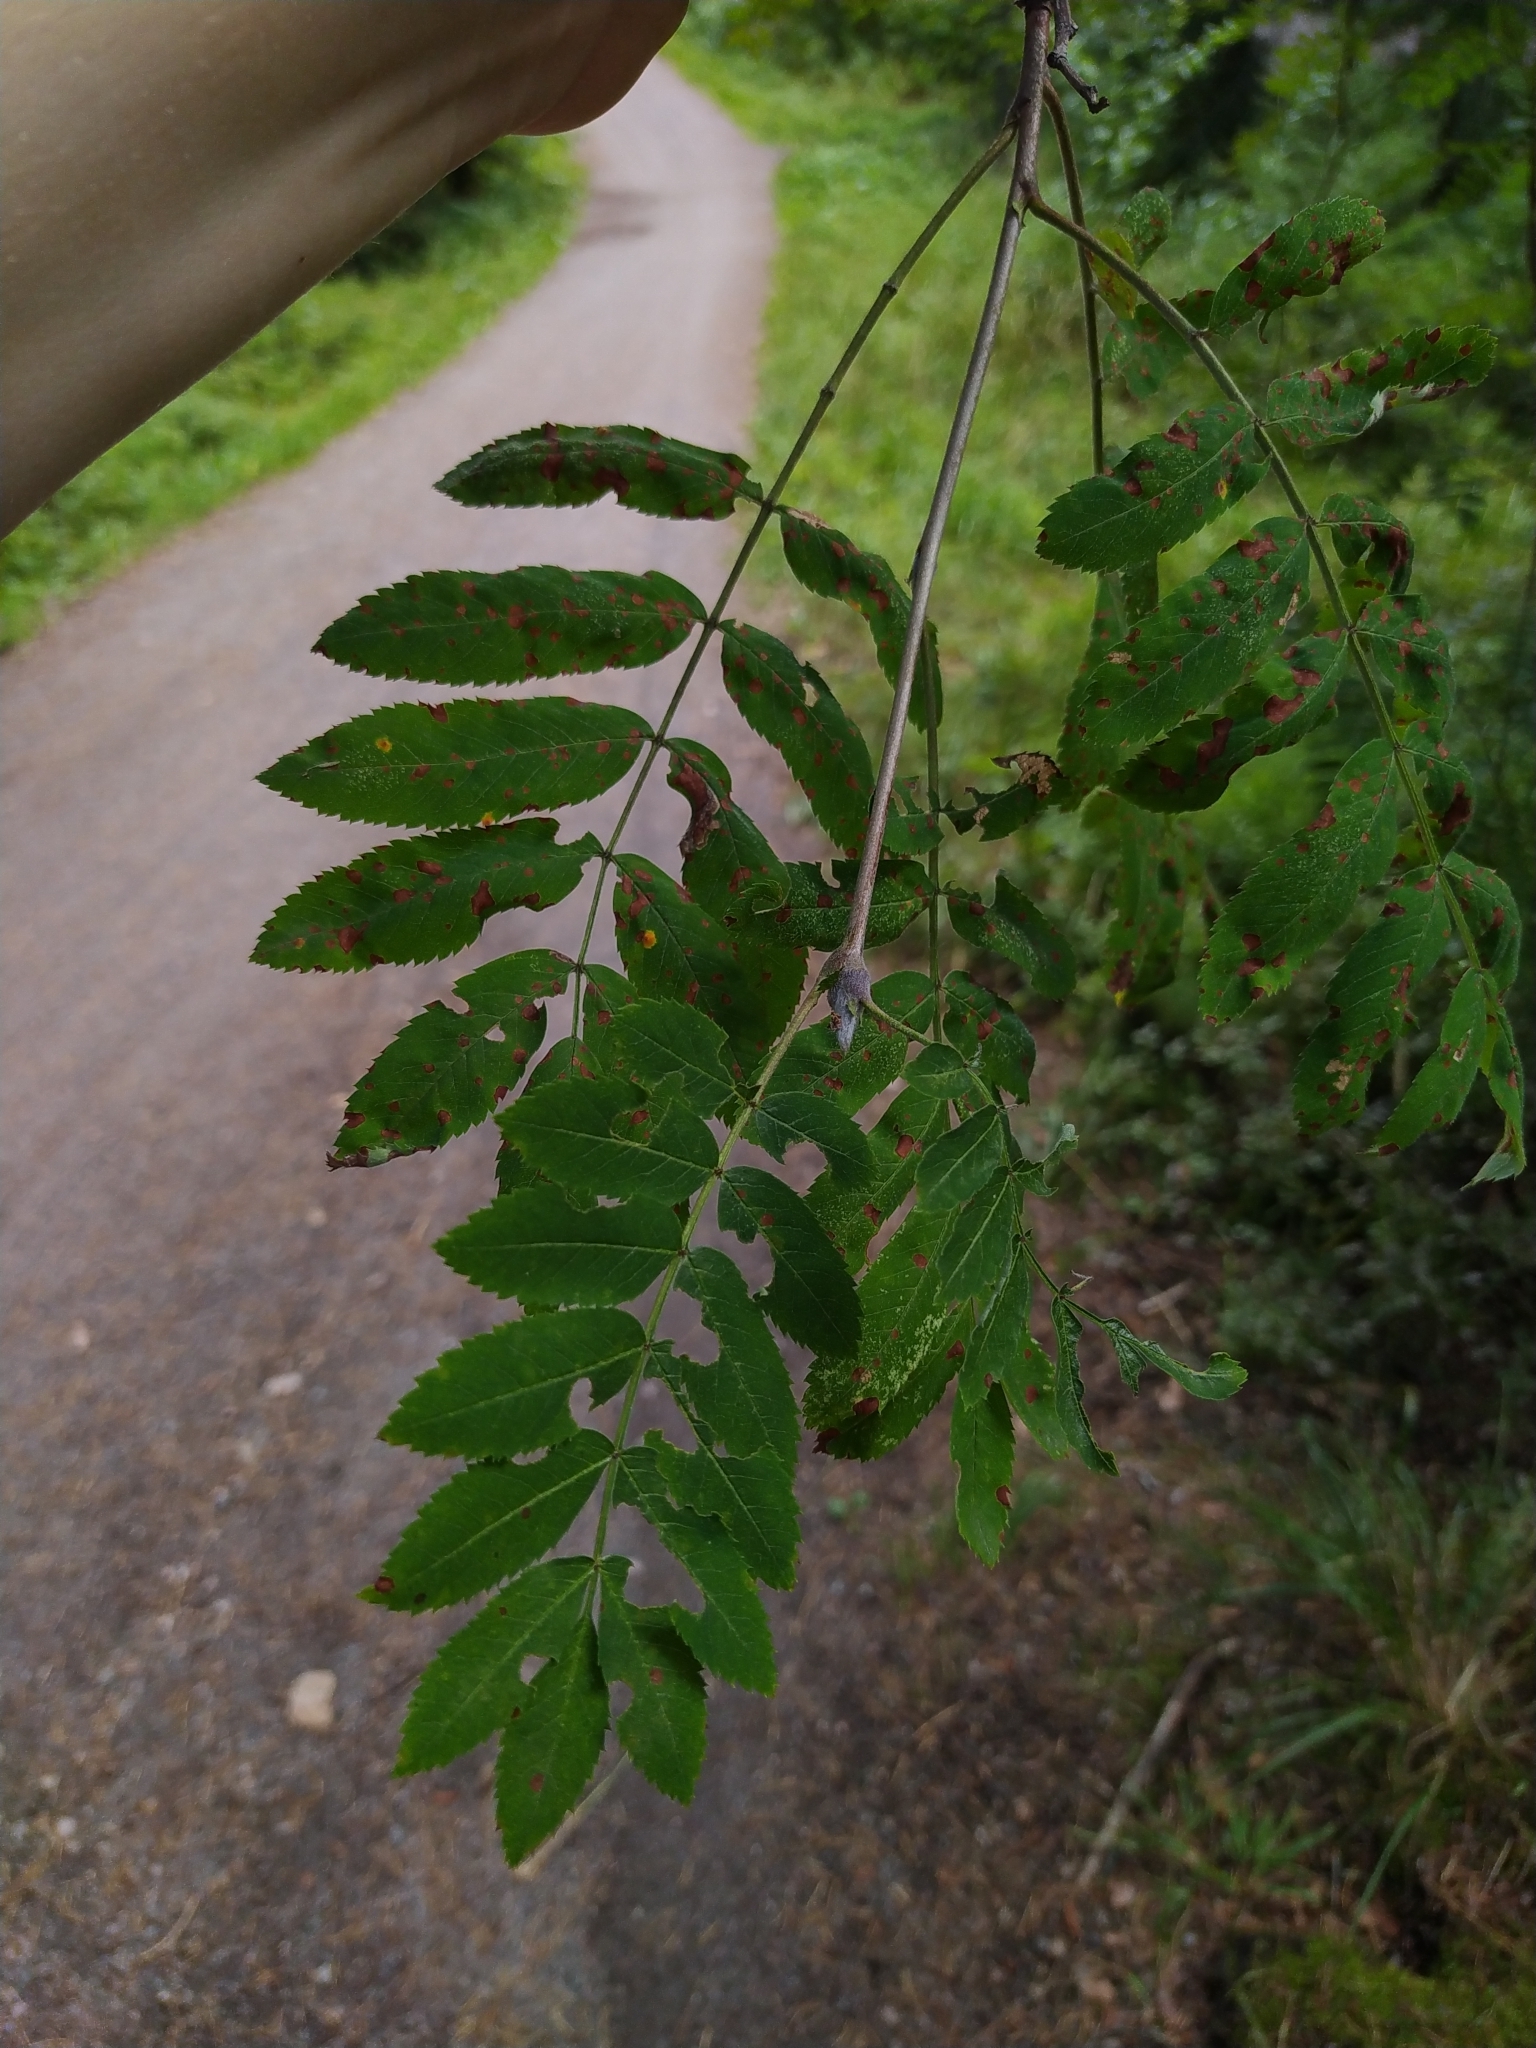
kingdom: Plantae
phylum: Tracheophyta
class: Magnoliopsida
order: Rosales
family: Rosaceae
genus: Sorbus
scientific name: Sorbus aucuparia
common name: Rowan
